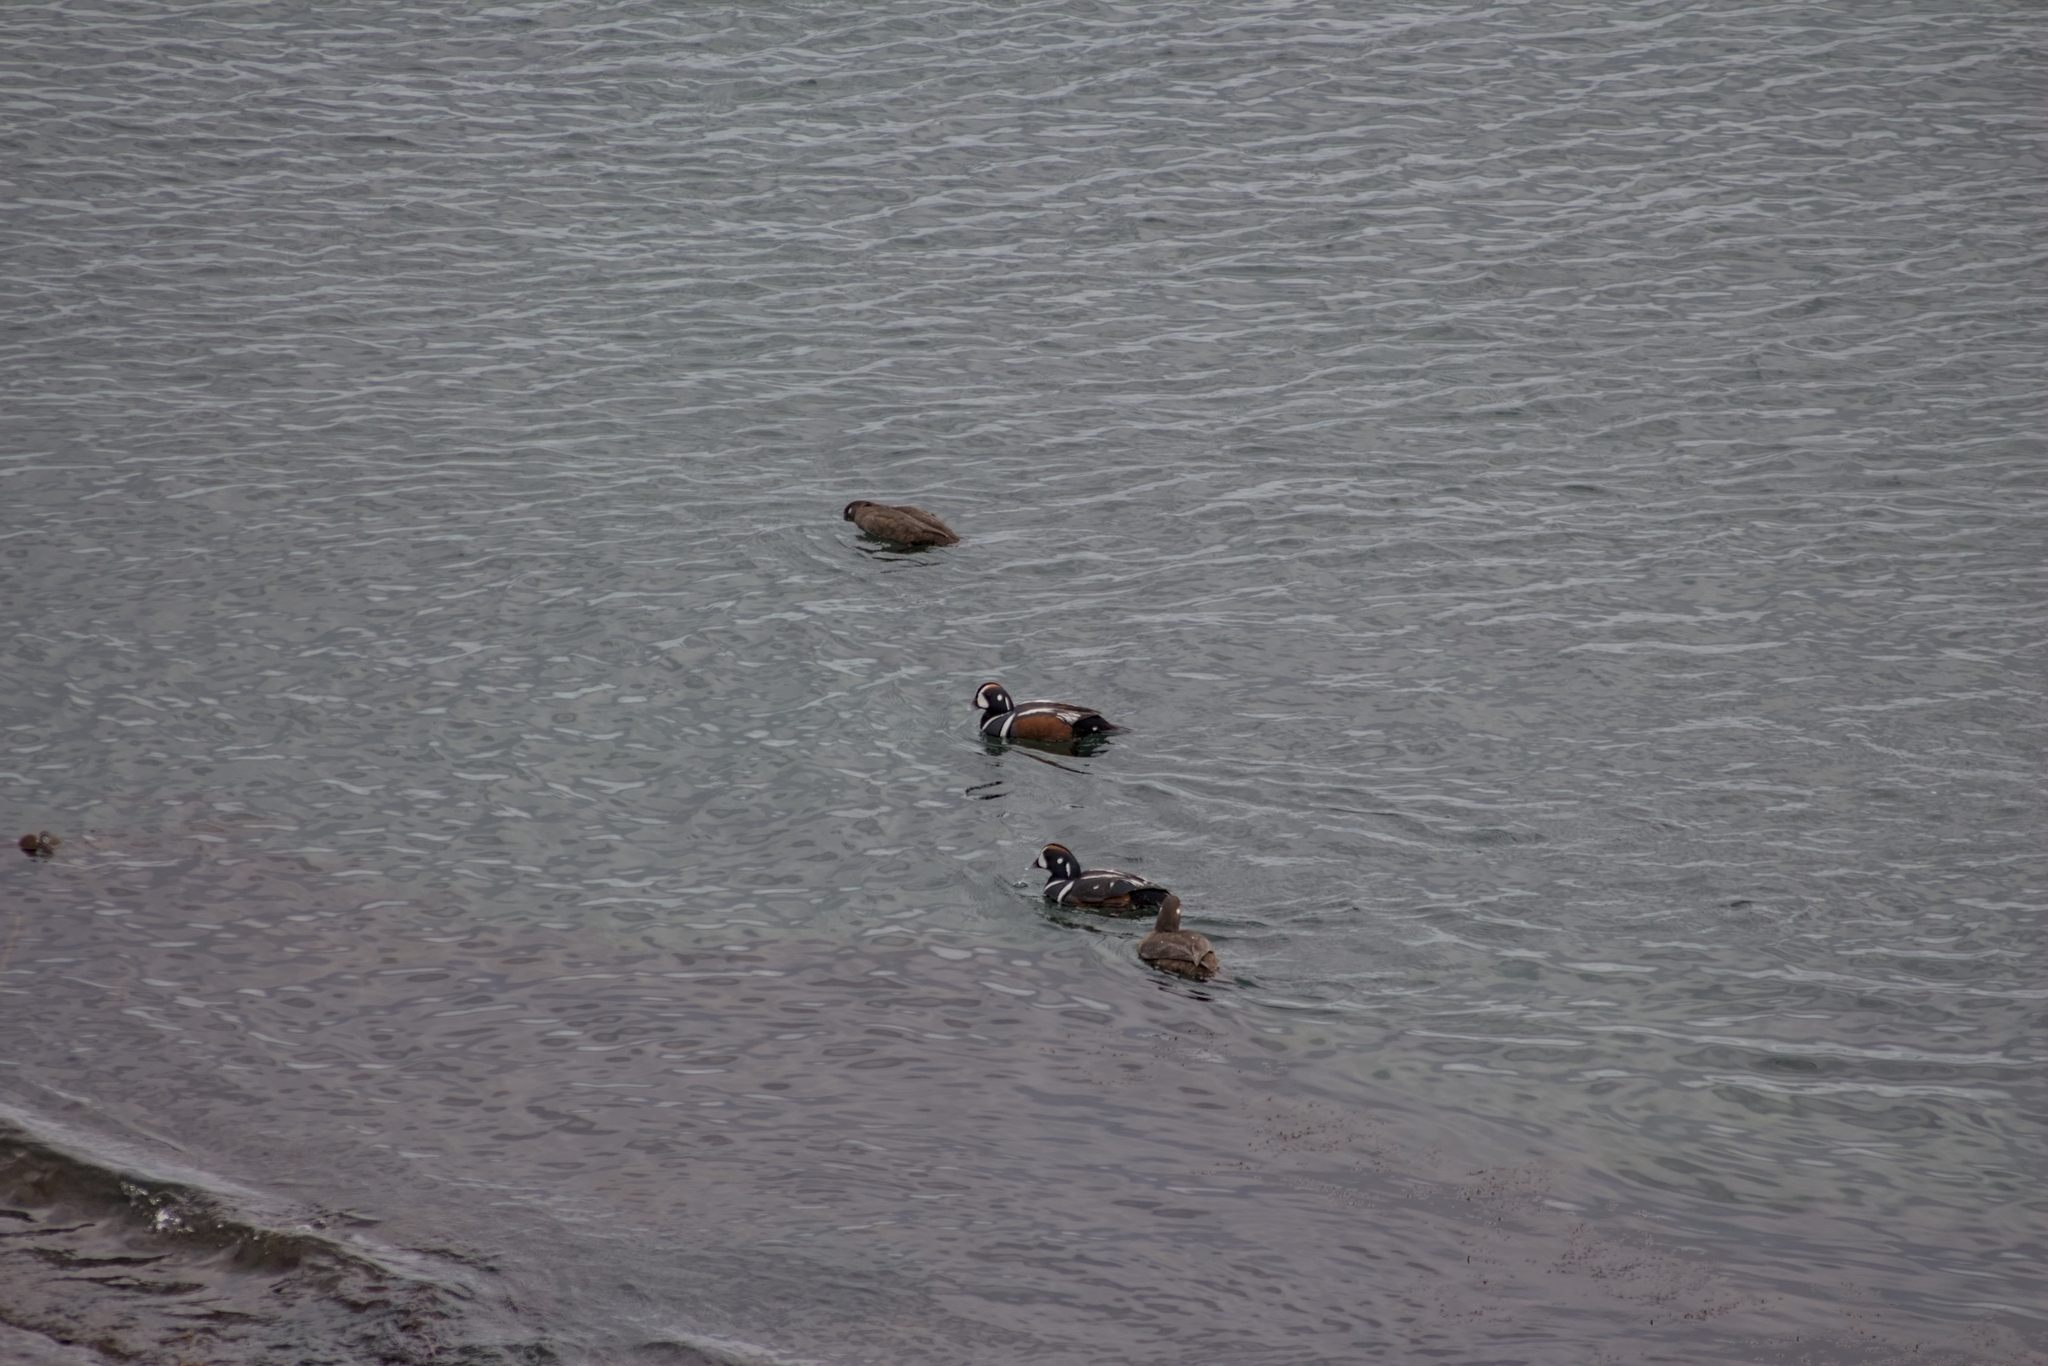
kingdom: Animalia
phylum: Chordata
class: Aves
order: Anseriformes
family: Anatidae
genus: Histrionicus
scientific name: Histrionicus histrionicus
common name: Harlequin duck
